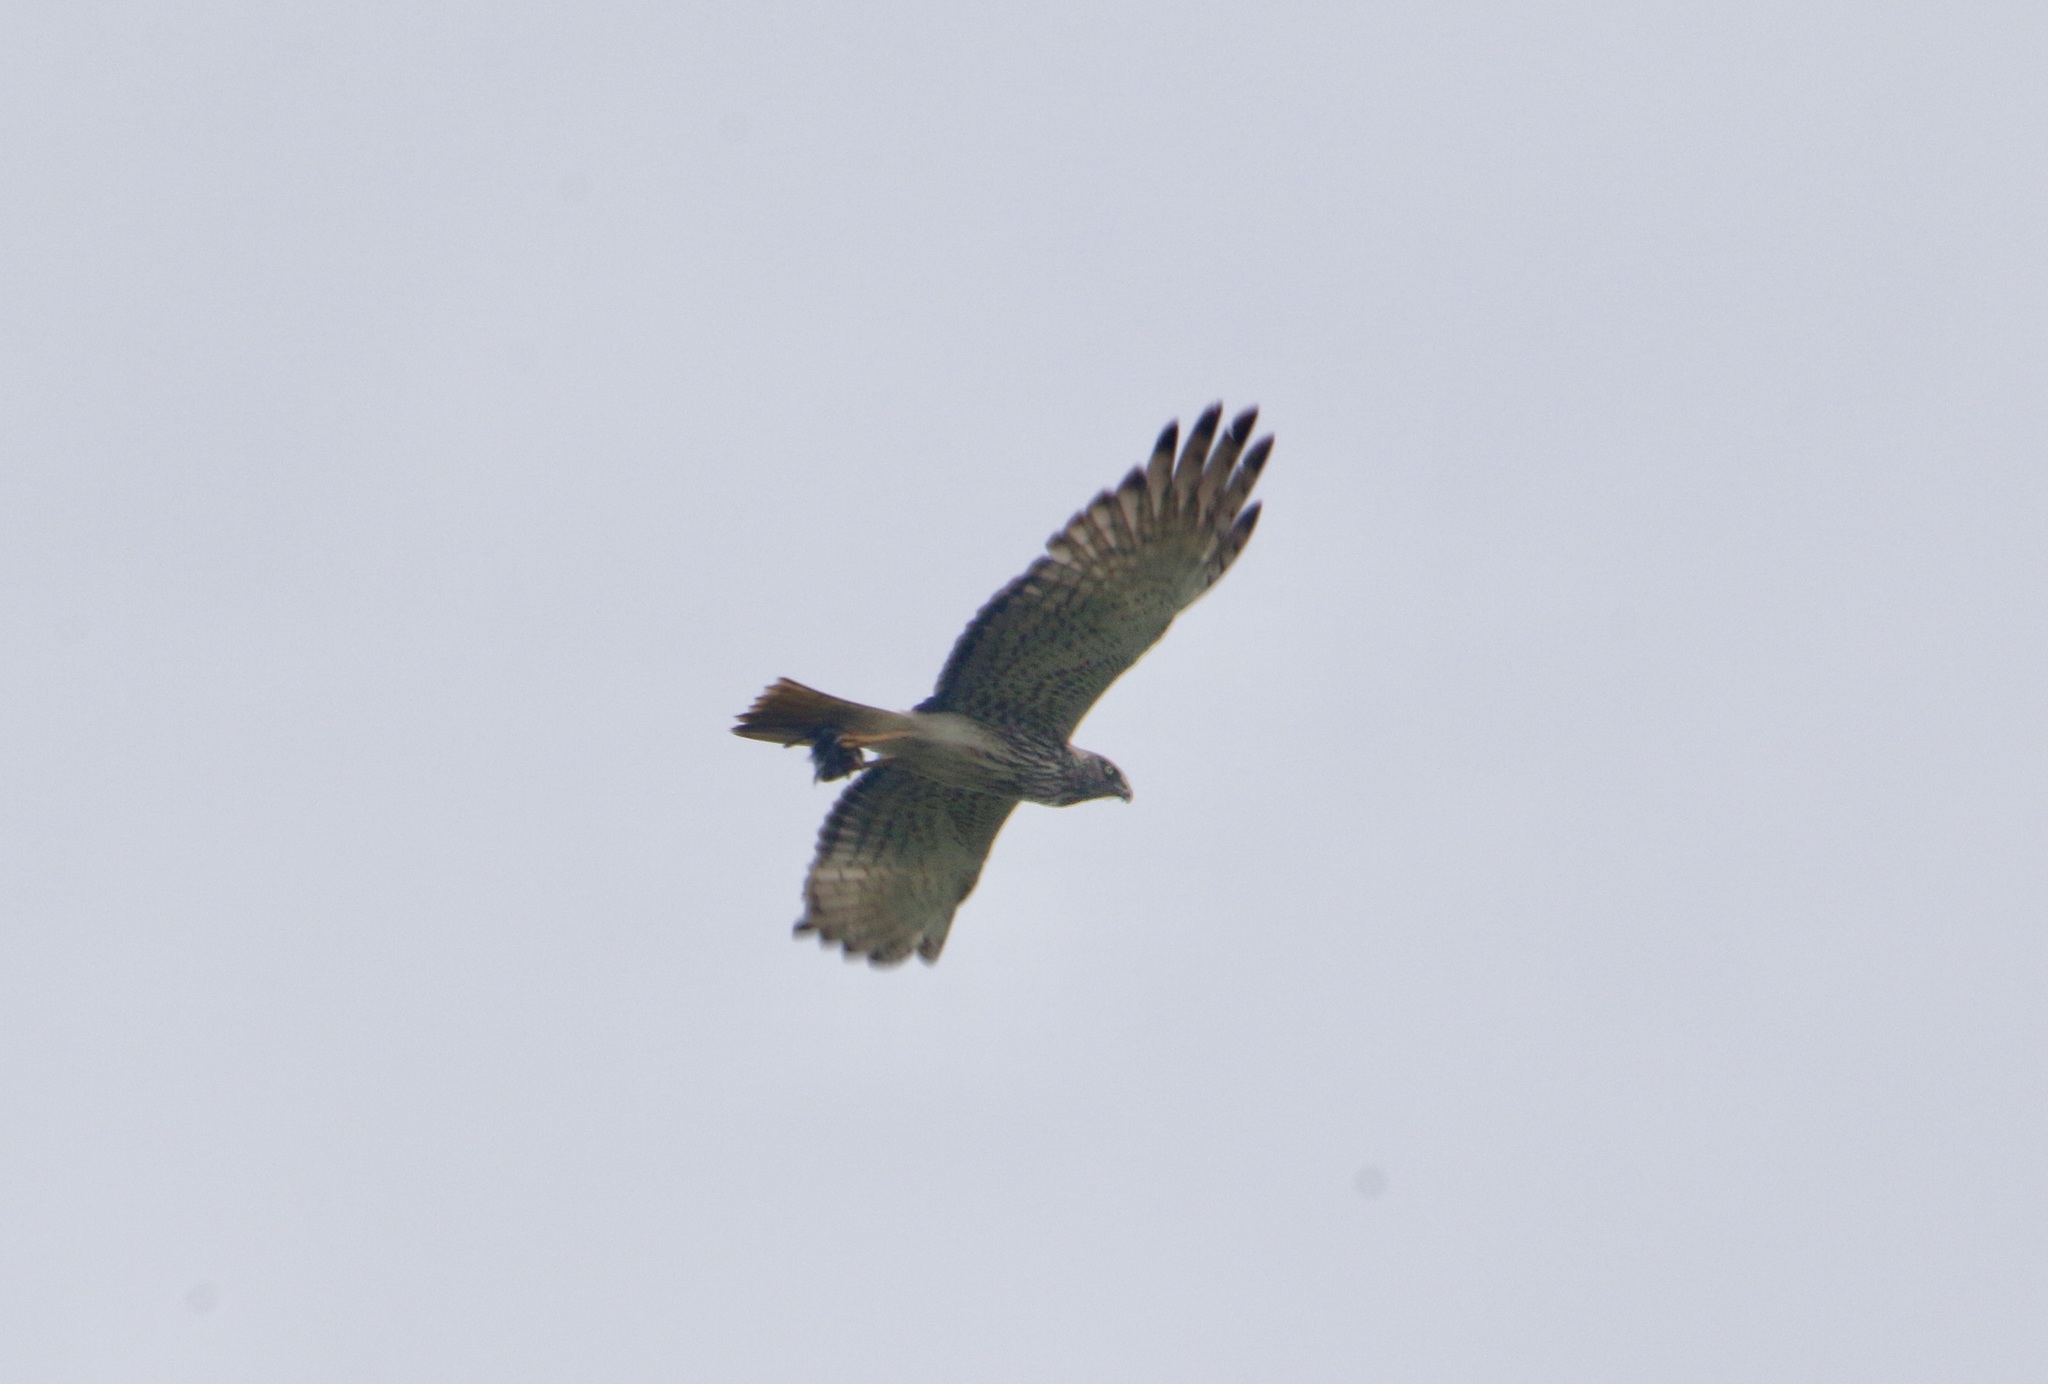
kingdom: Animalia
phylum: Chordata
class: Aves
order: Accipitriformes
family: Accipitridae
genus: Circus
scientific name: Circus approximans
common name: Swamp harrier
